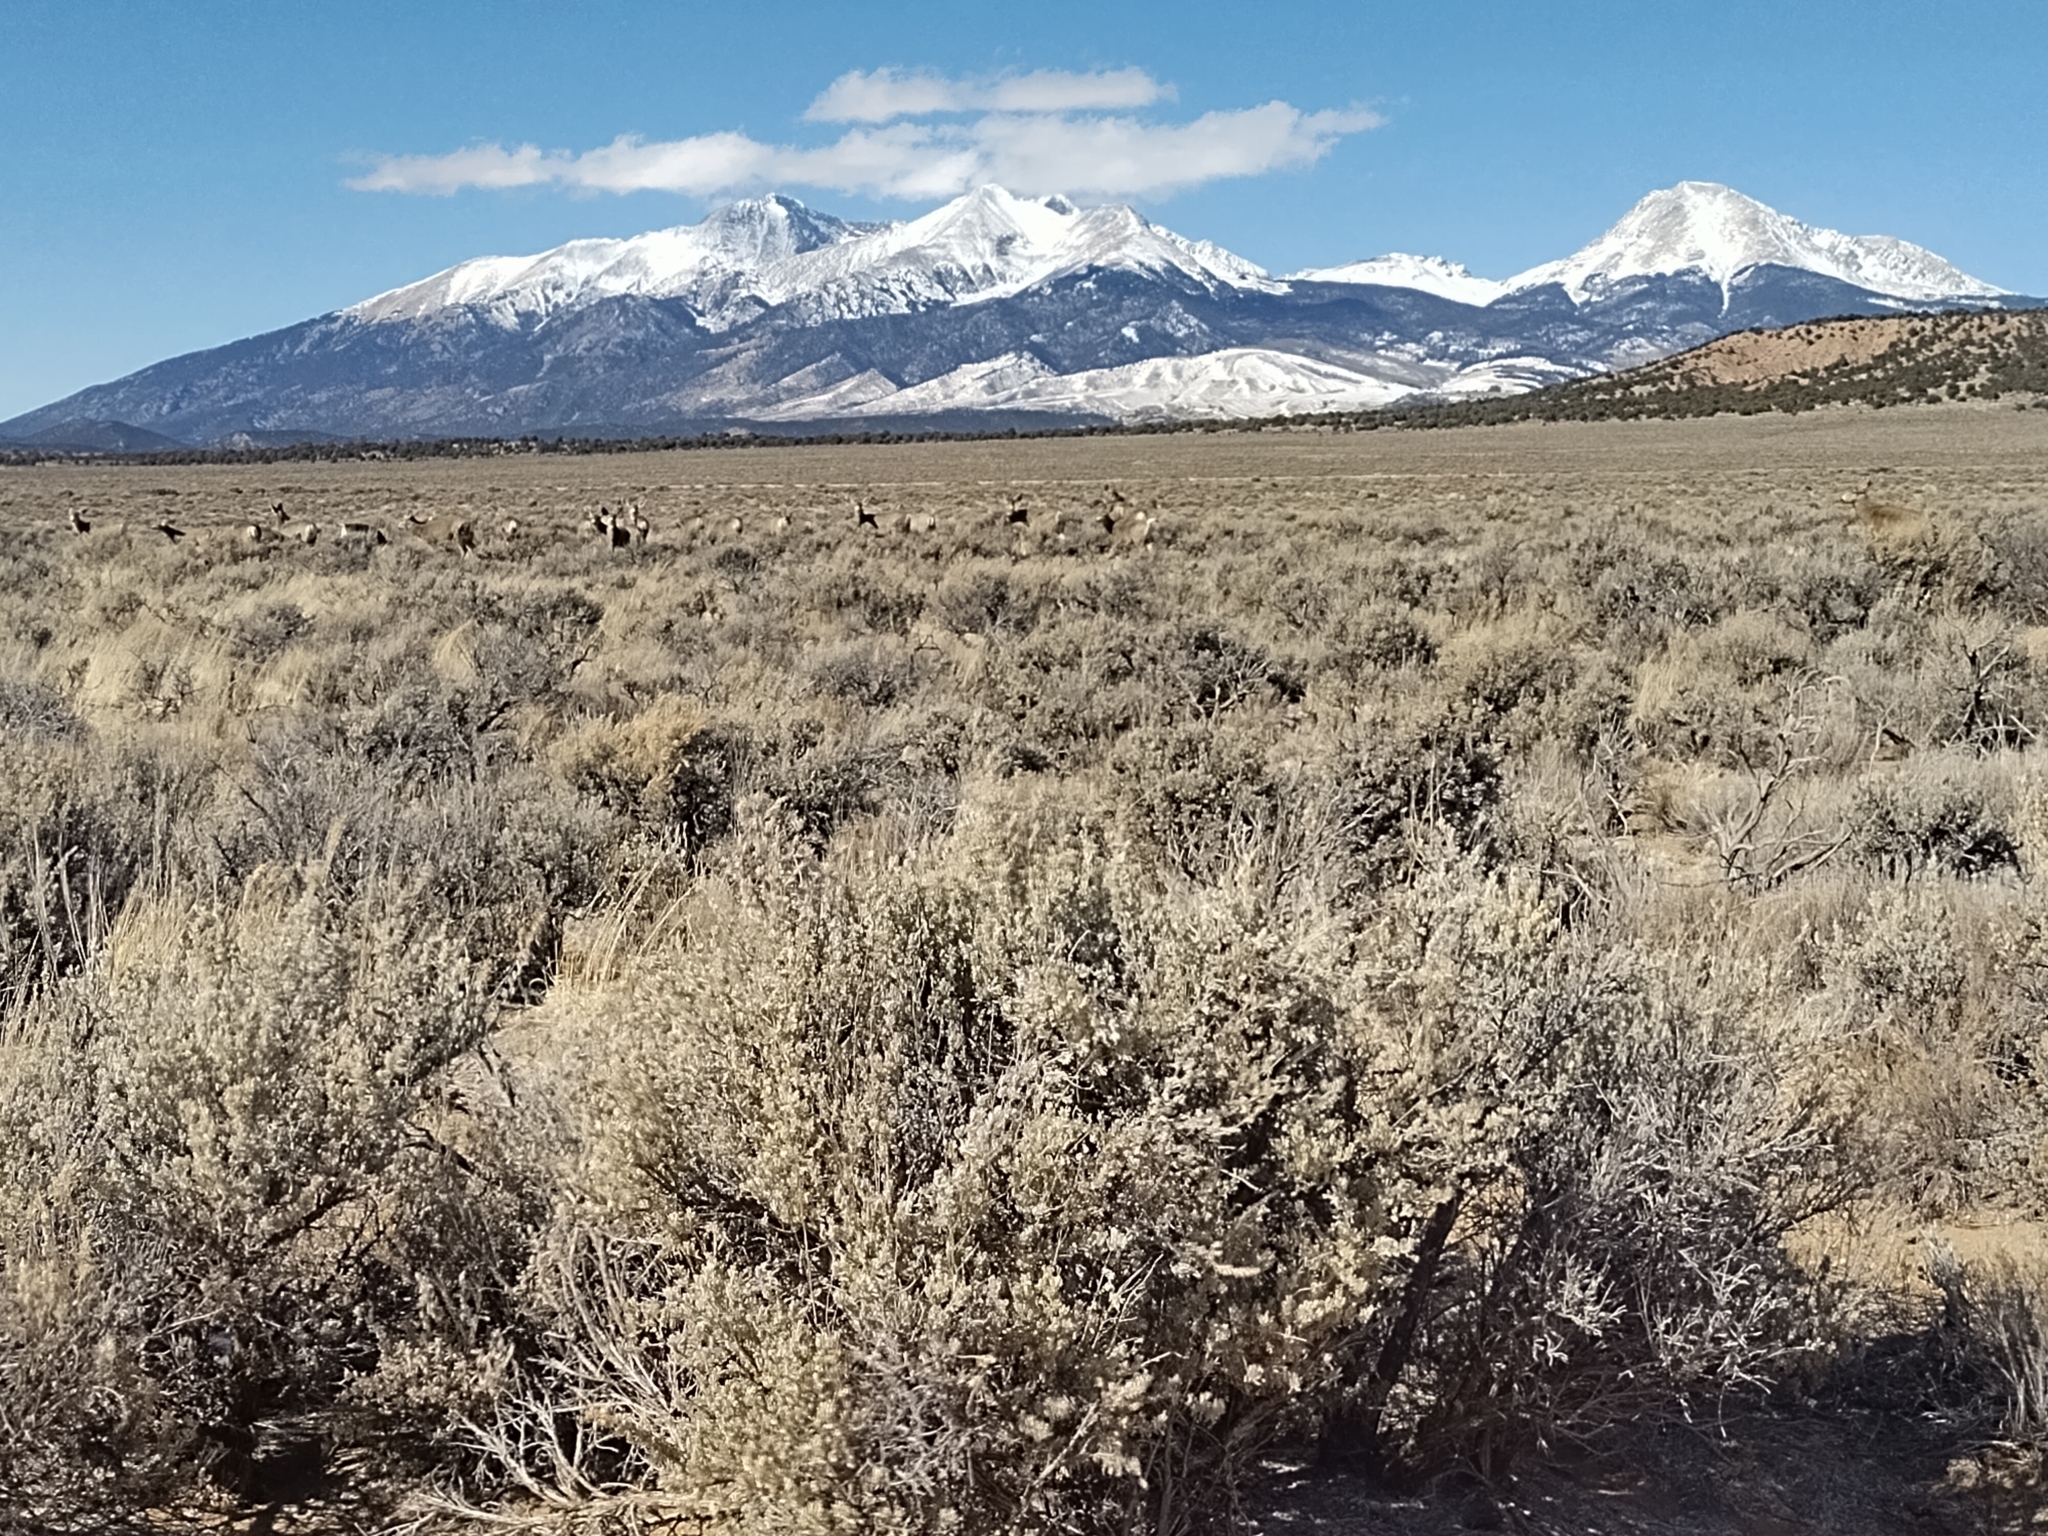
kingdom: Animalia
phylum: Chordata
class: Mammalia
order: Artiodactyla
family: Cervidae
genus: Odocoileus
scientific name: Odocoileus hemionus
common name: Mule deer
